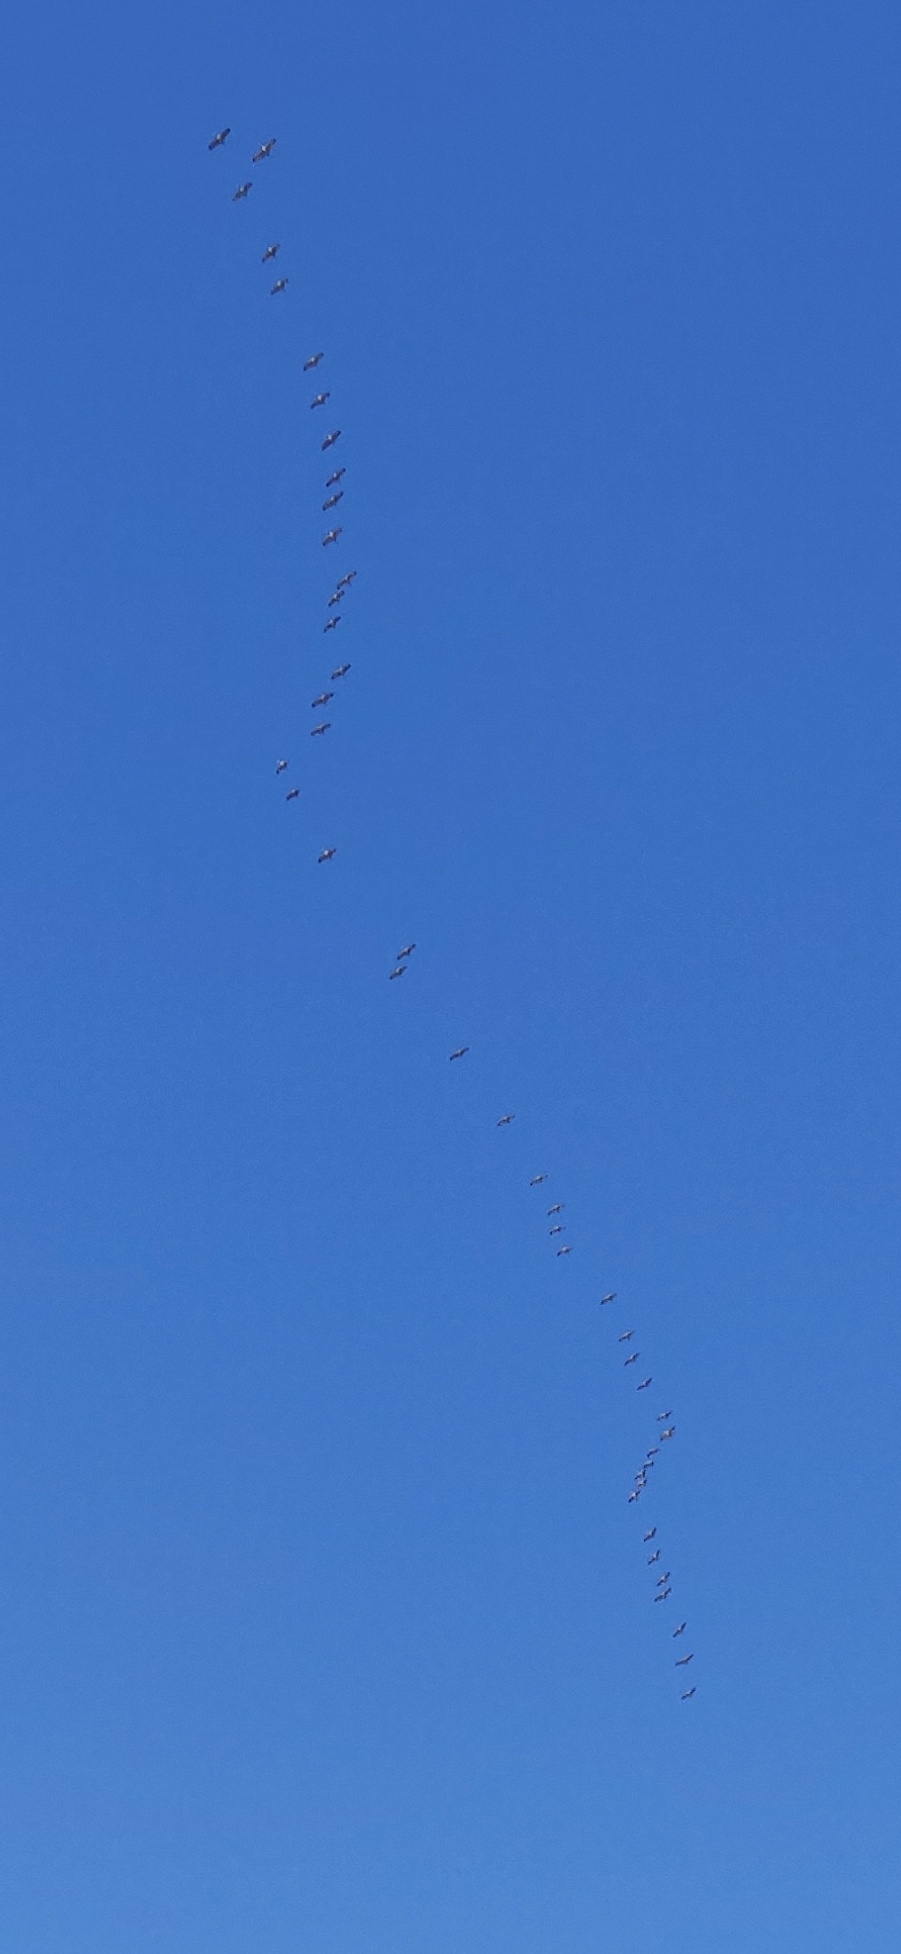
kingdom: Animalia
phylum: Chordata
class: Aves
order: Gruiformes
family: Gruidae
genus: Grus
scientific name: Grus canadensis
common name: Sandhill crane
